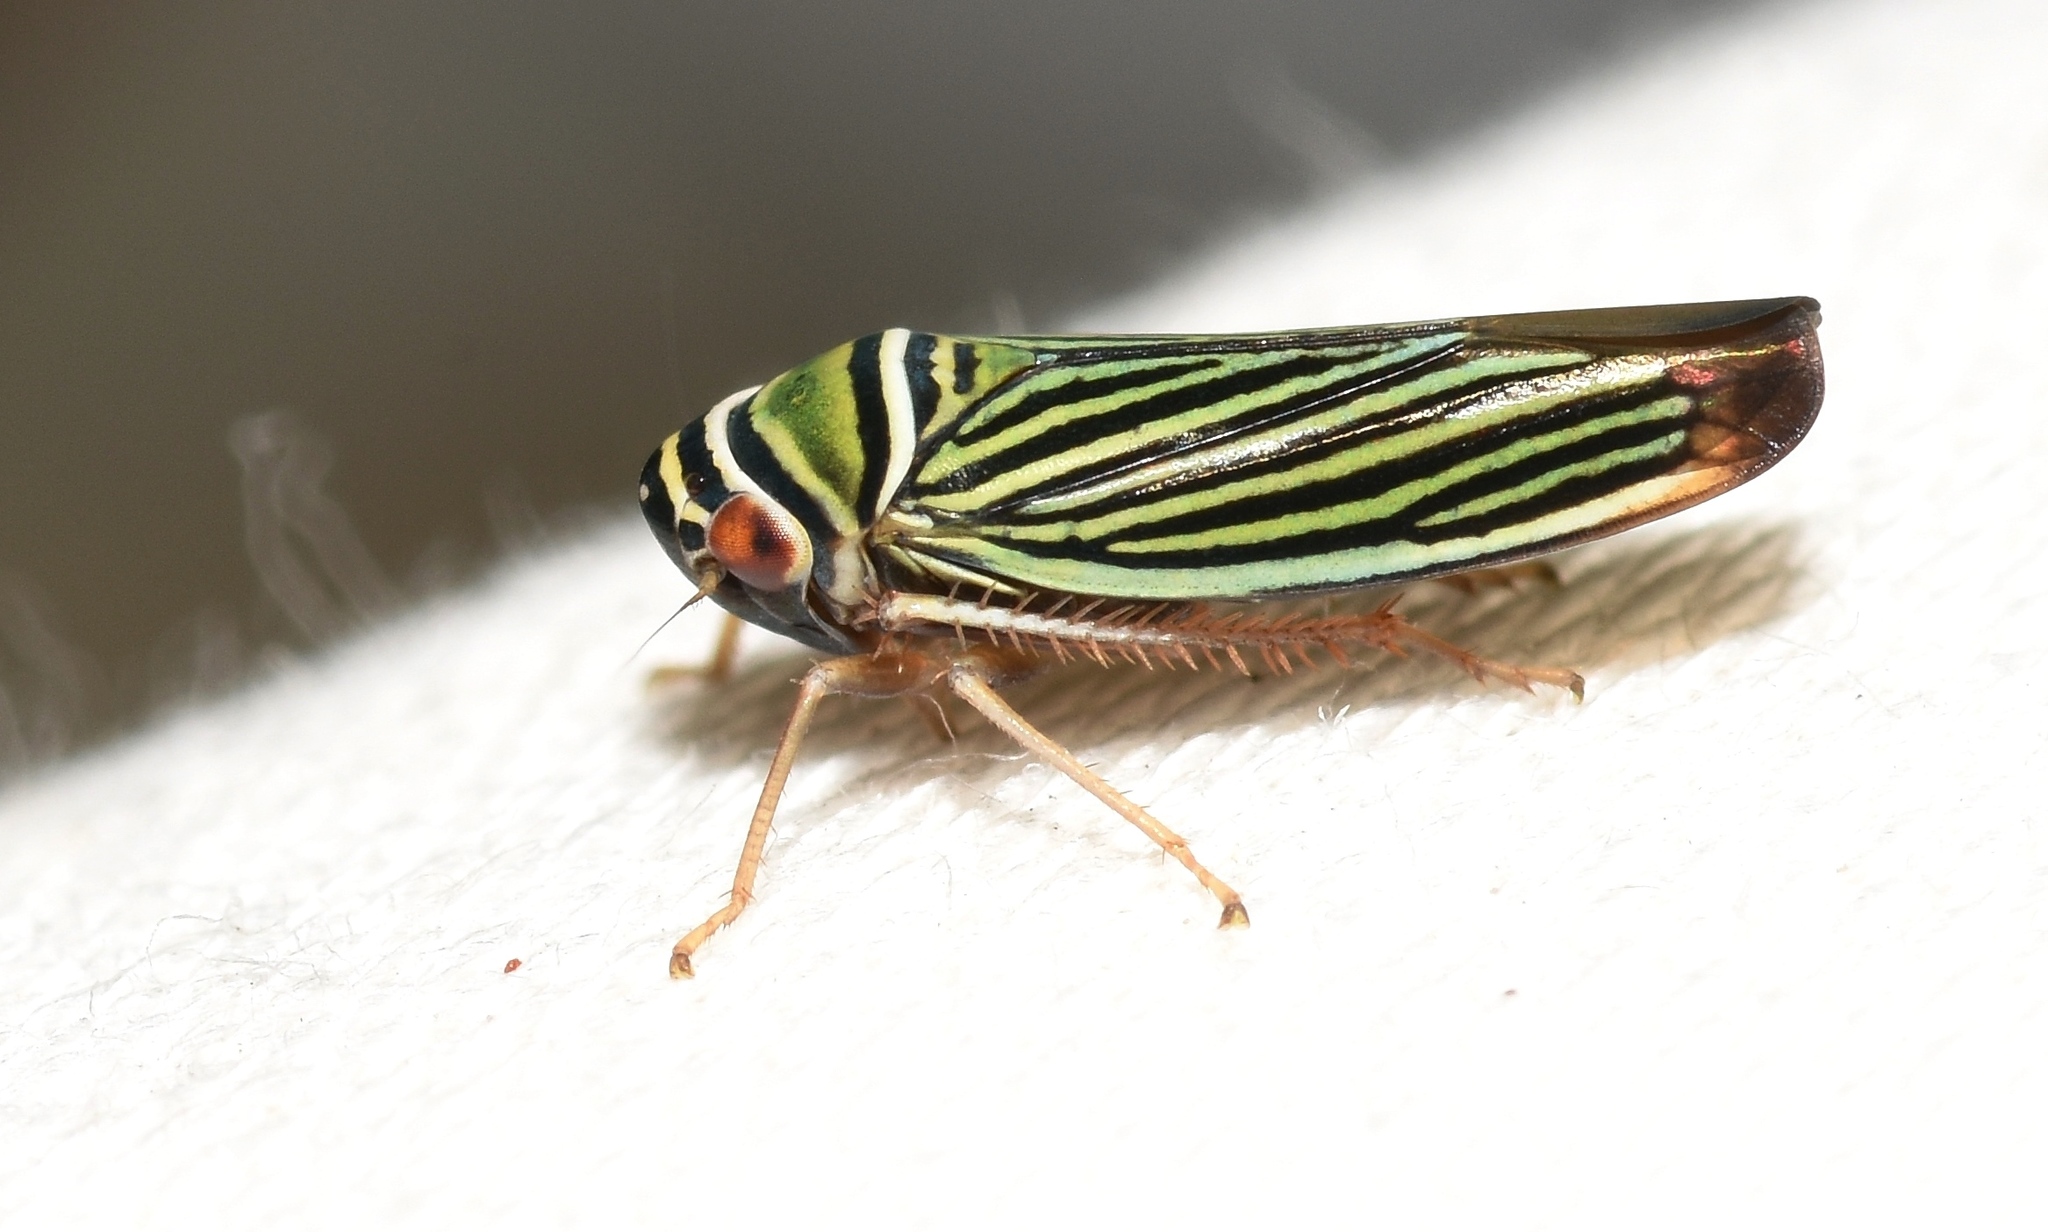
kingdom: Animalia
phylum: Arthropoda
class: Insecta
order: Hemiptera
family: Cicadellidae
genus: Tylozygus
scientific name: Tylozygus bifidus
